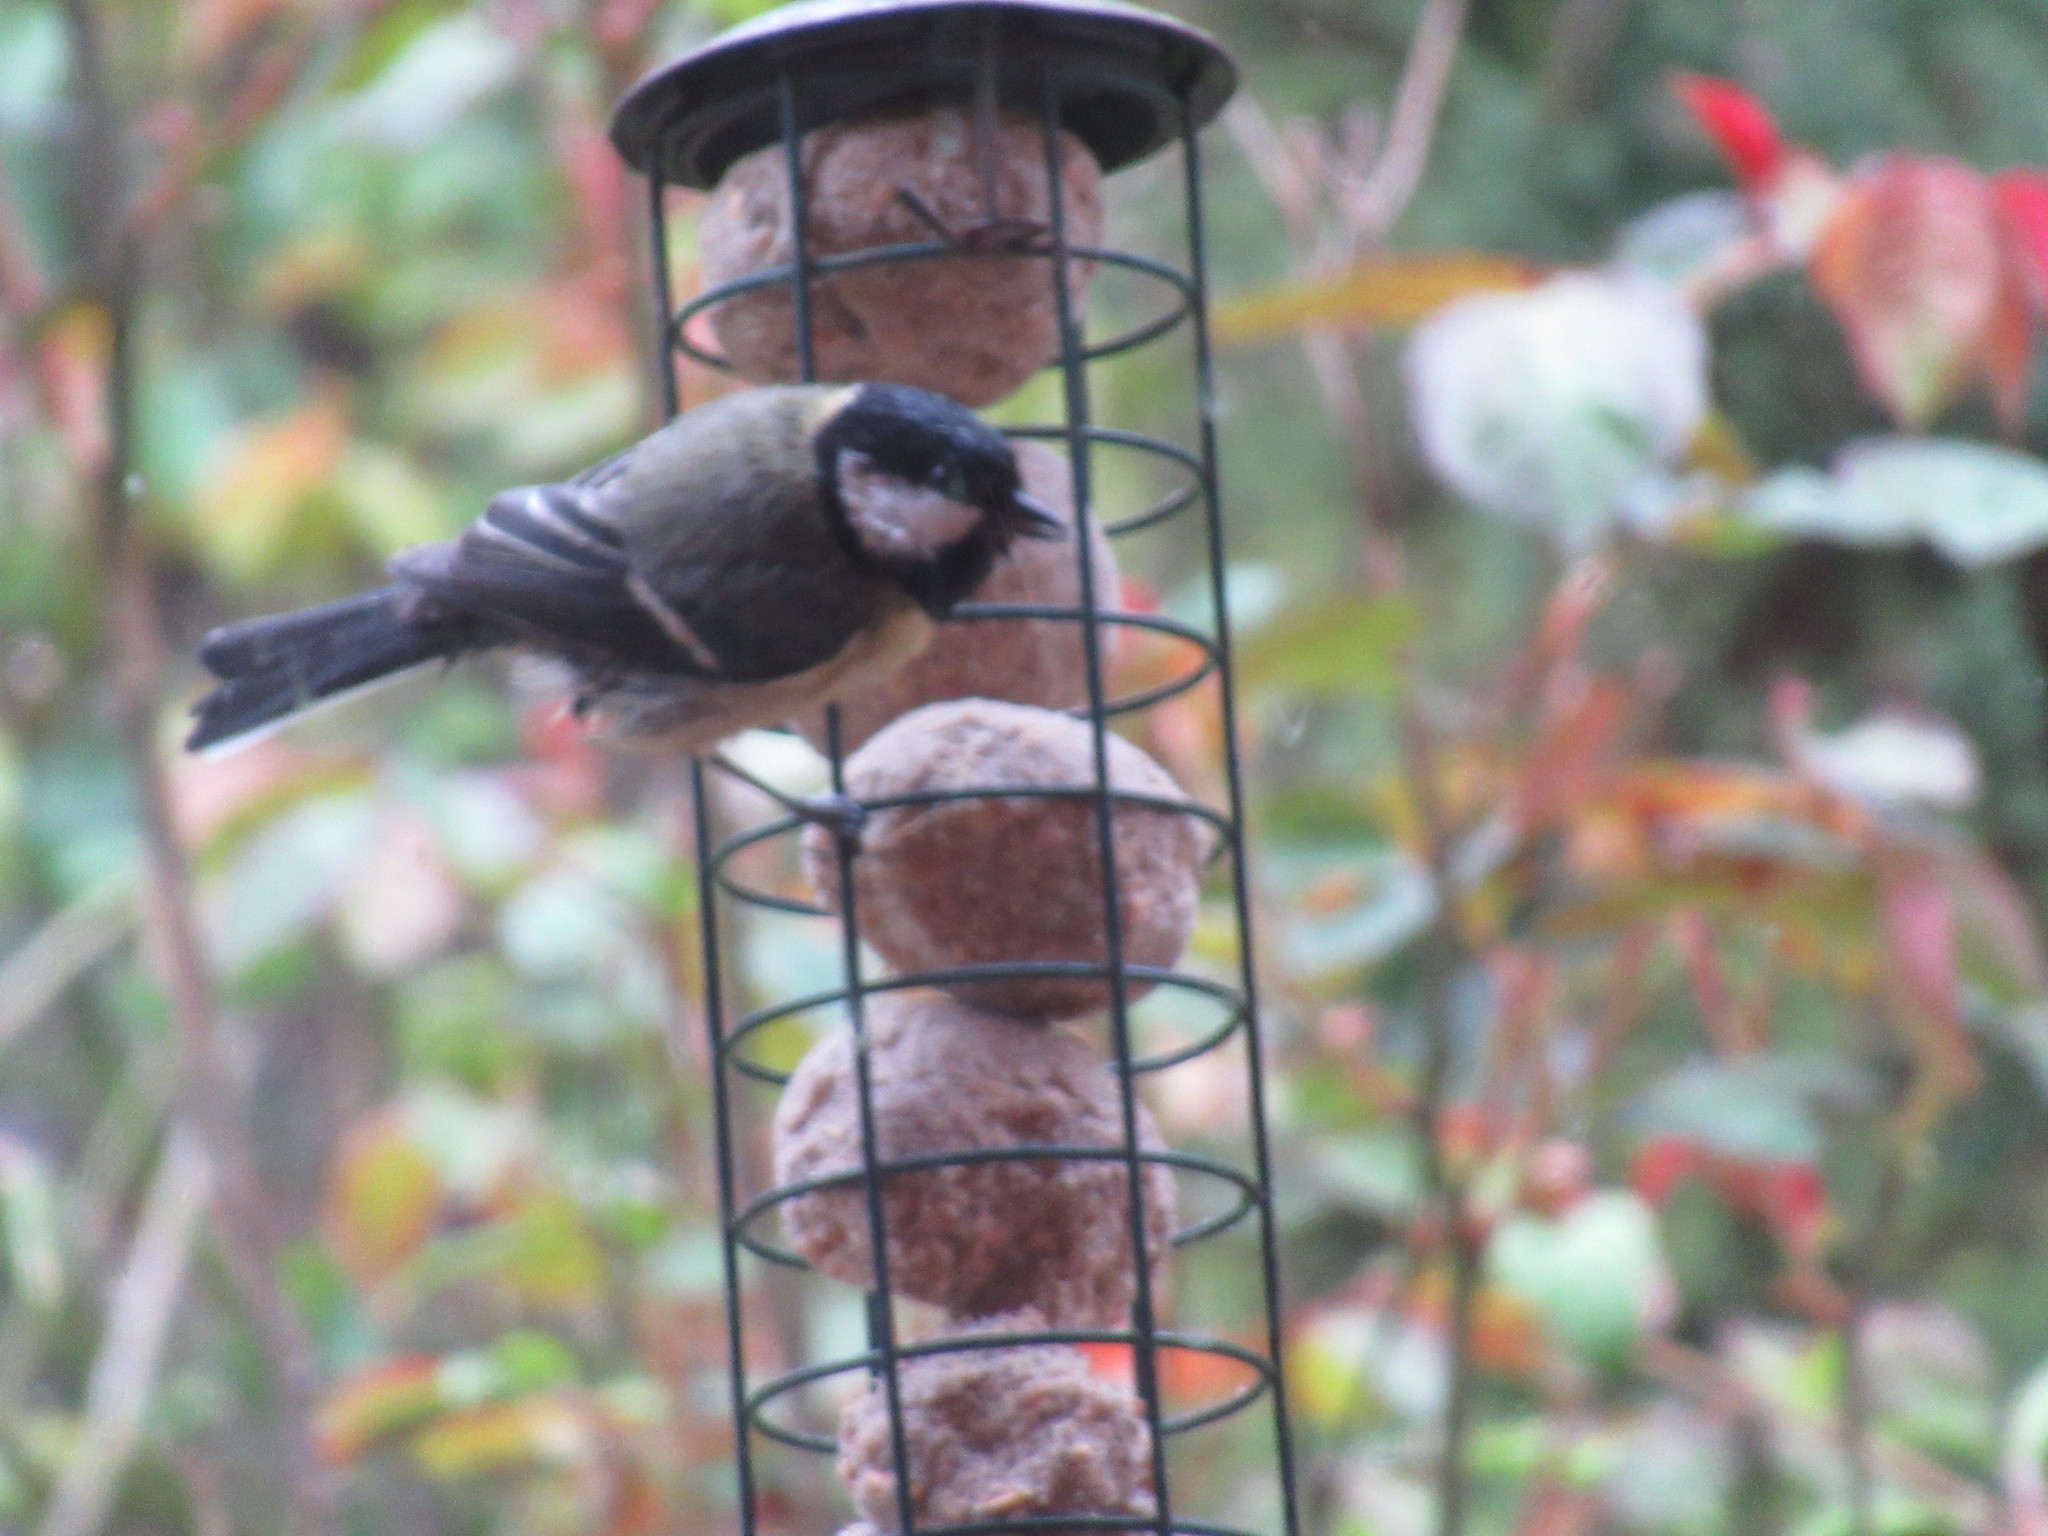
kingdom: Animalia
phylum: Chordata
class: Aves
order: Passeriformes
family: Paridae
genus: Parus
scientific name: Parus major
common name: Great tit
